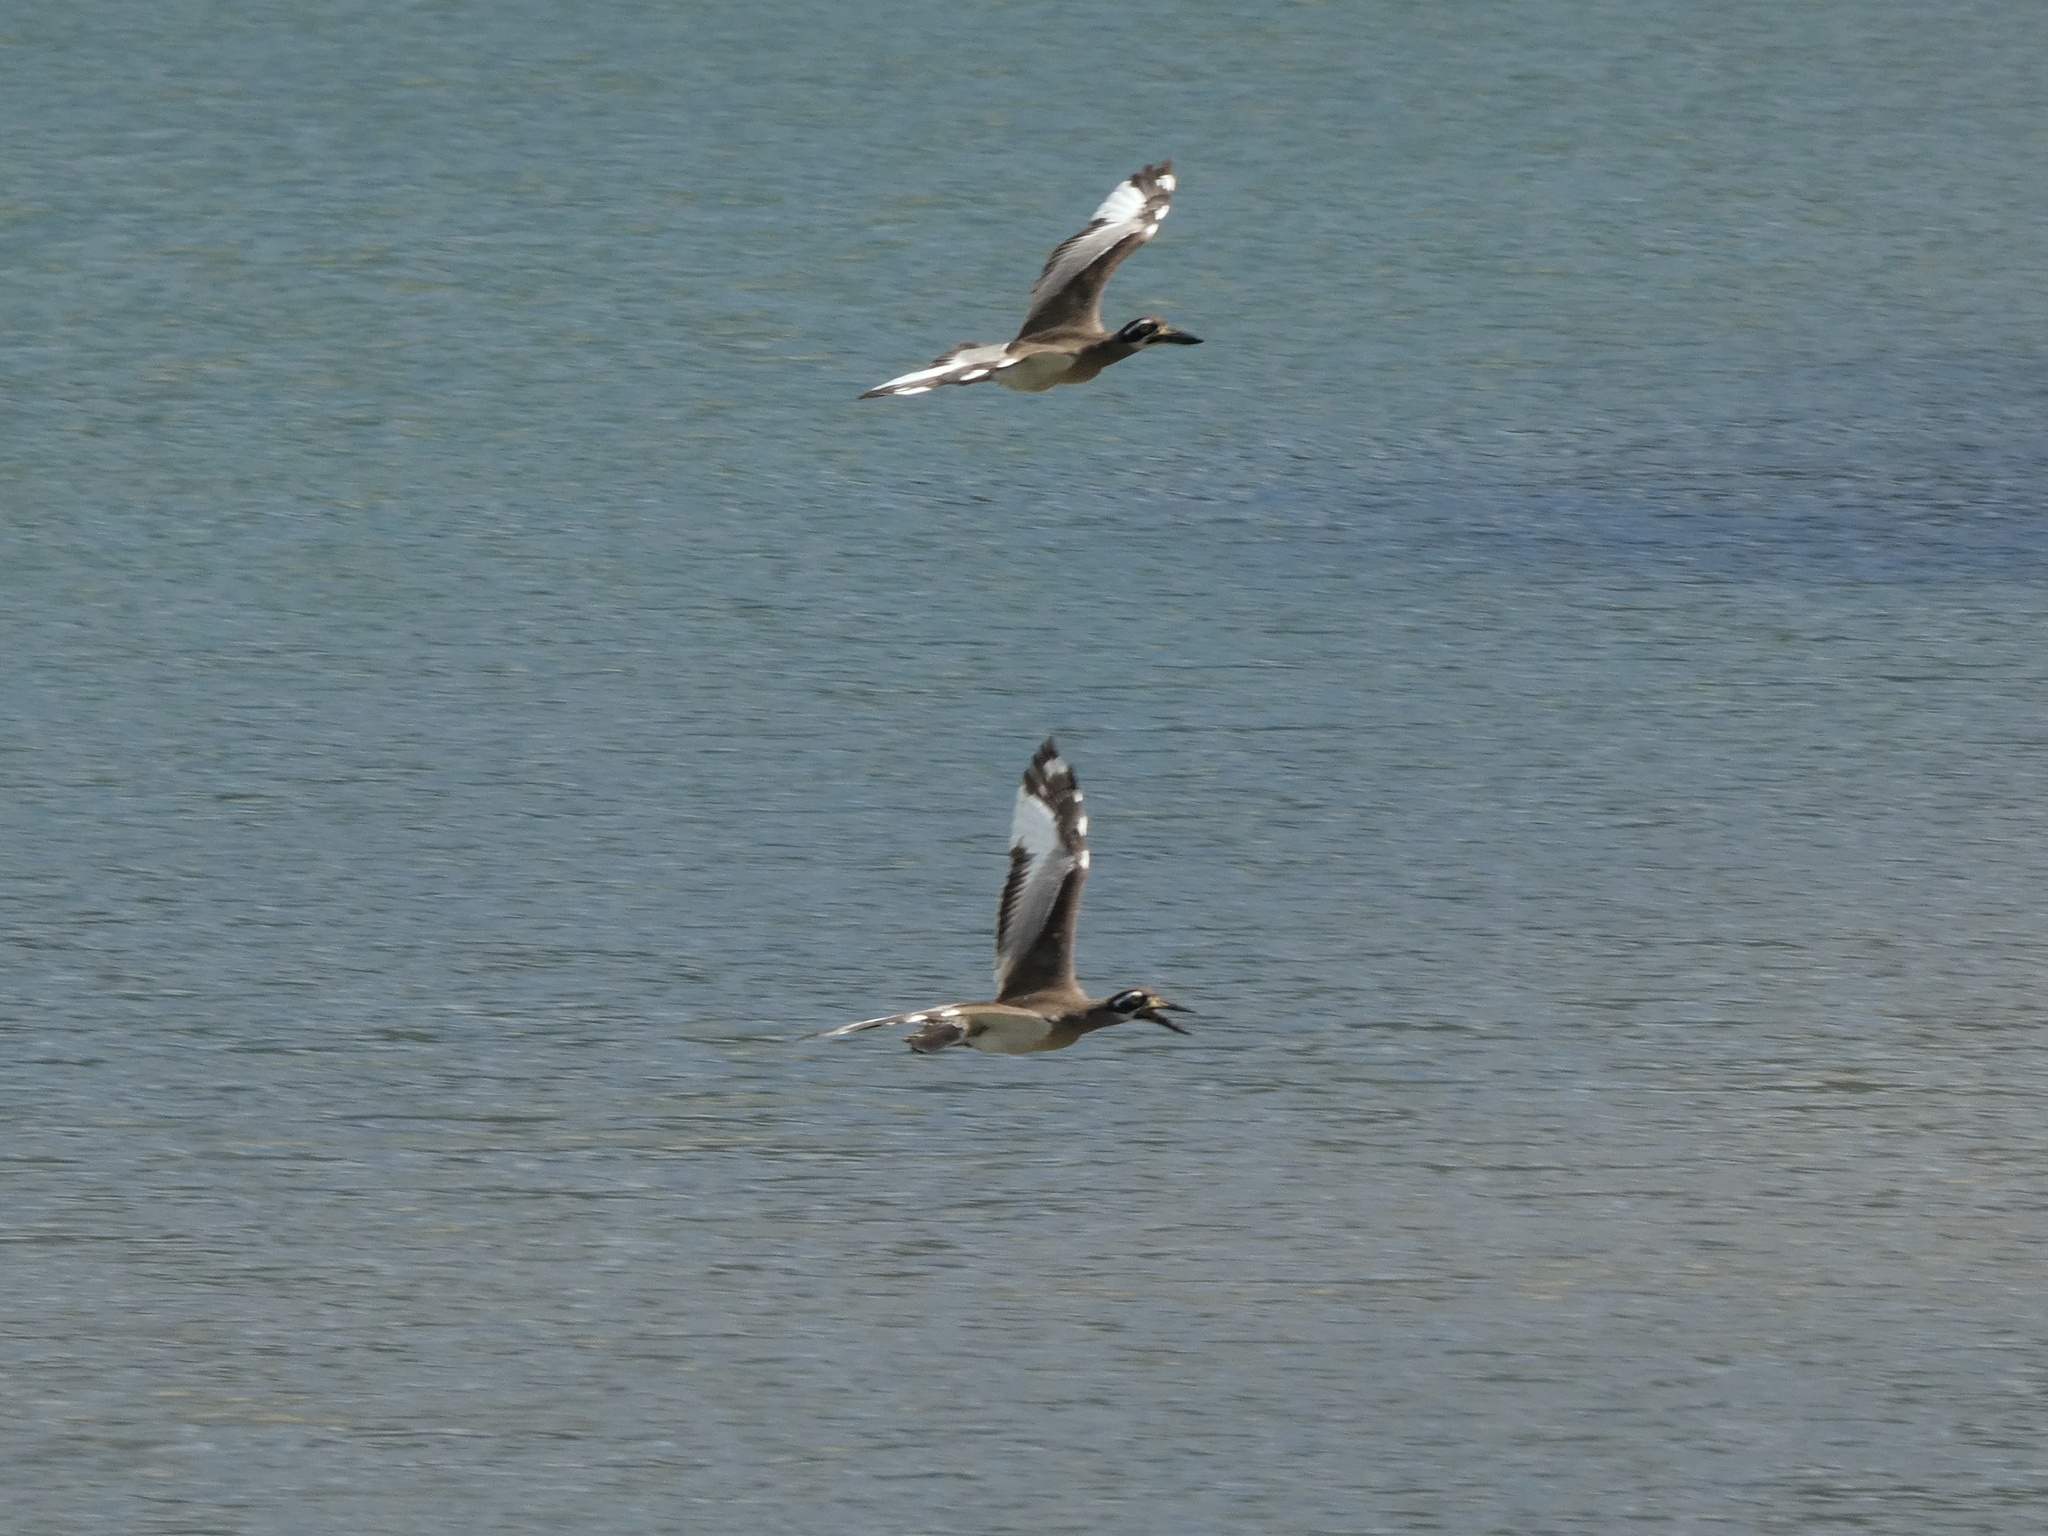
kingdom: Animalia
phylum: Chordata
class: Aves
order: Charadriiformes
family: Burhinidae
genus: Esacus
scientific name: Esacus magnirostris
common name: Beach stone-curlew
